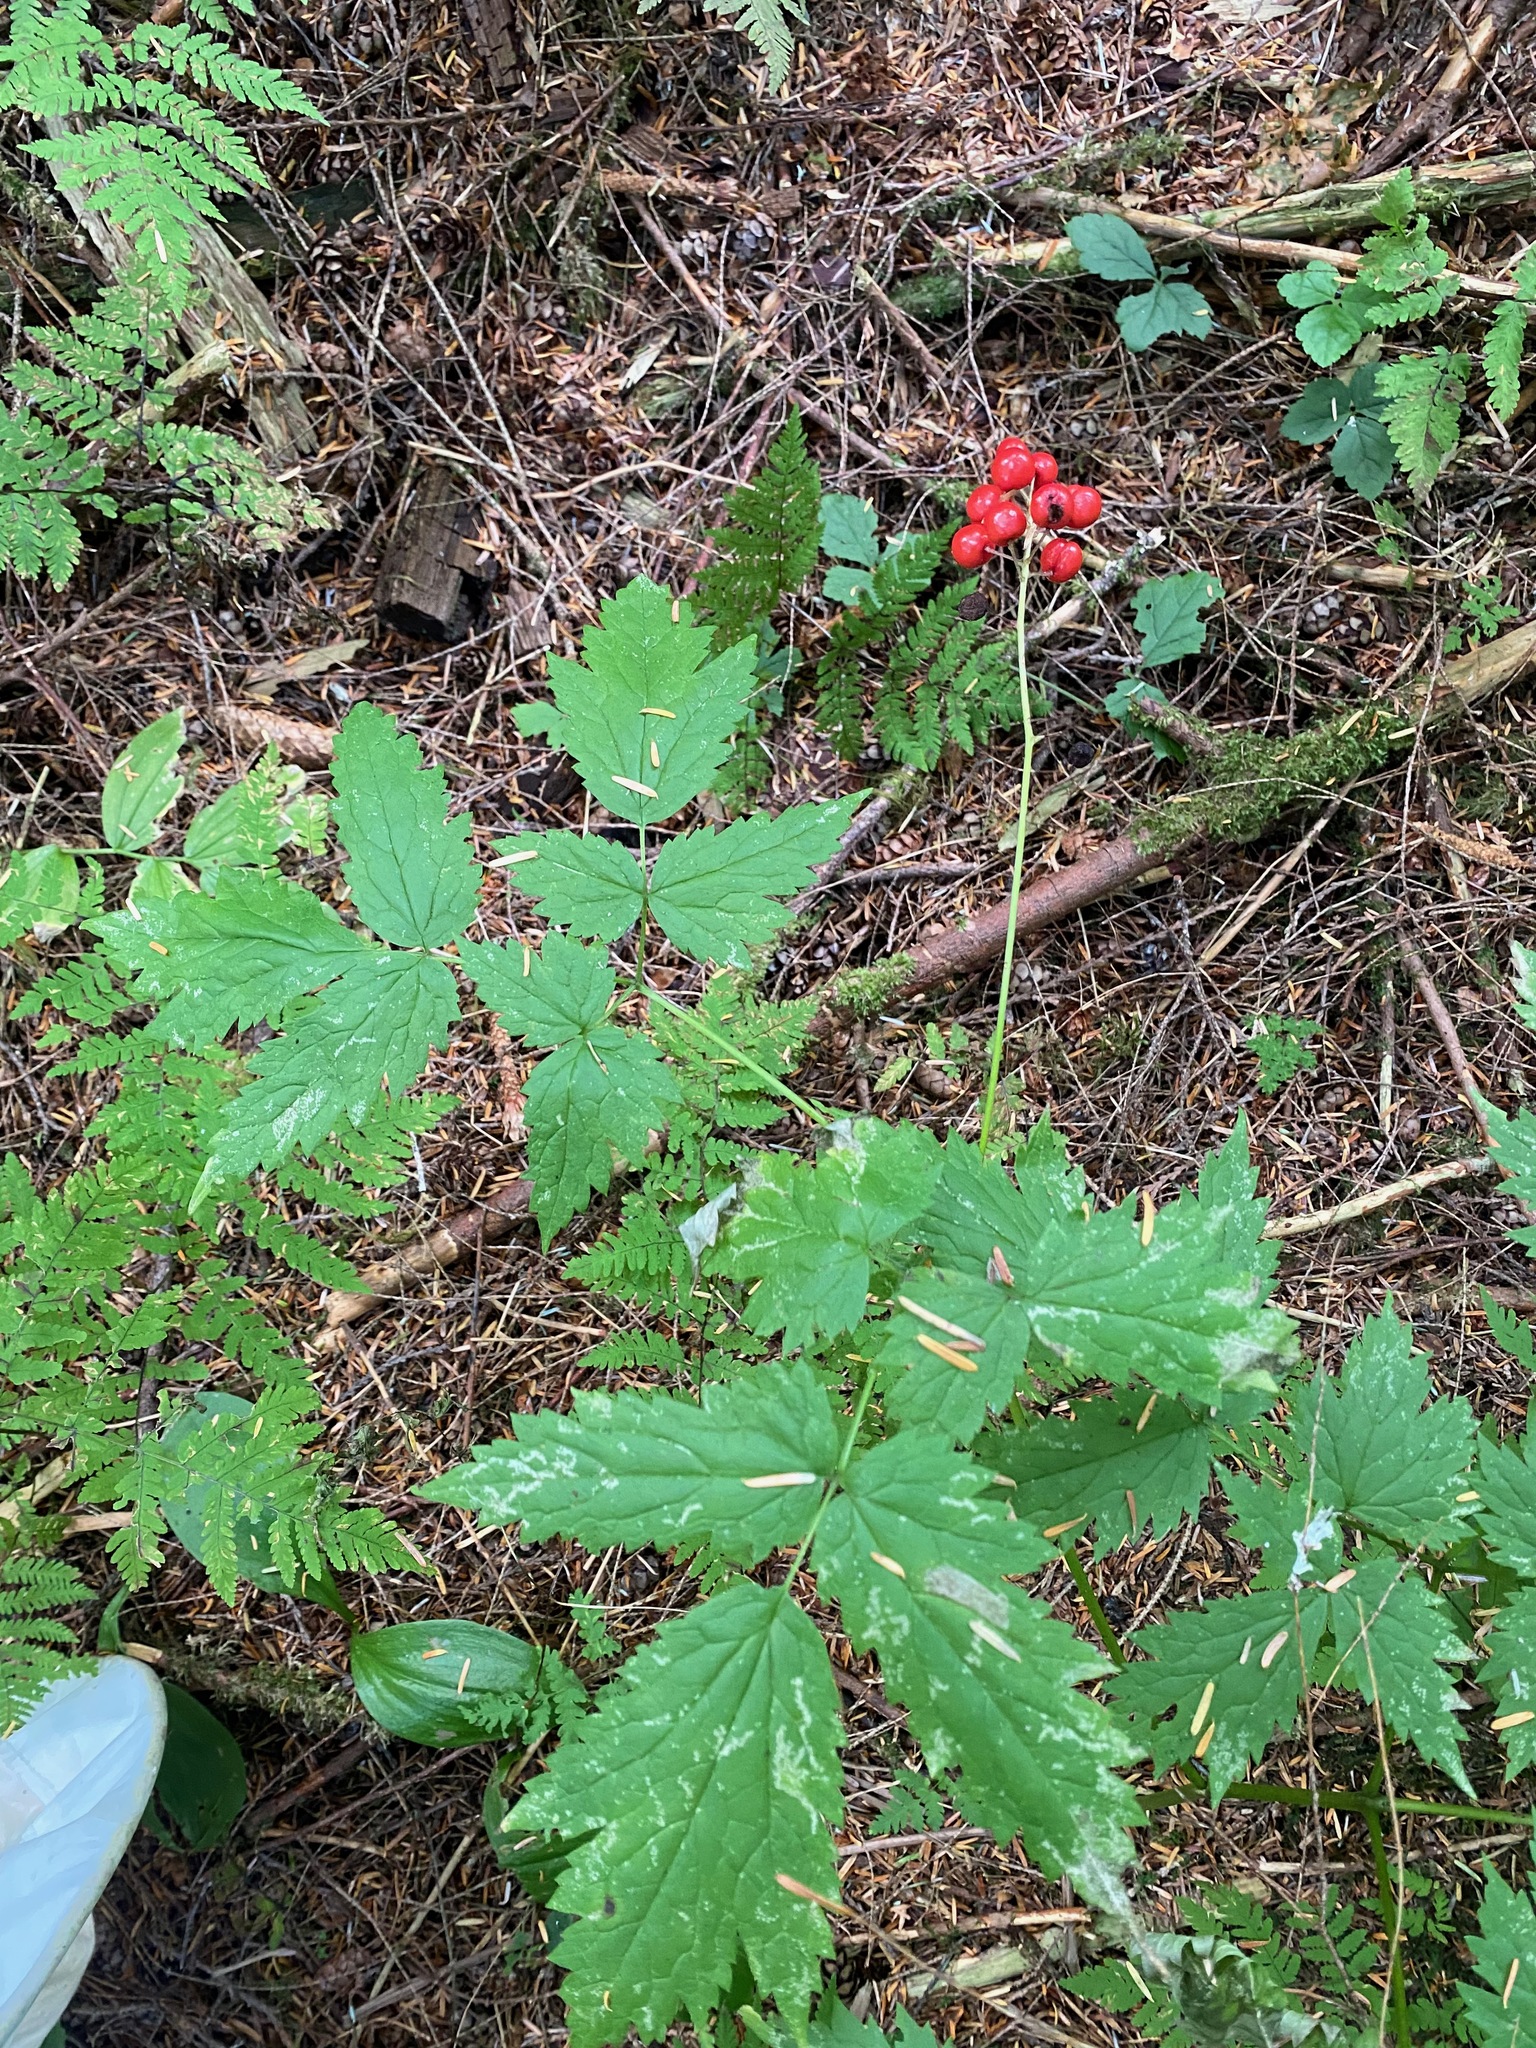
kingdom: Plantae
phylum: Tracheophyta
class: Magnoliopsida
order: Ranunculales
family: Ranunculaceae
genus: Actaea
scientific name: Actaea rubra
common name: Red baneberry
